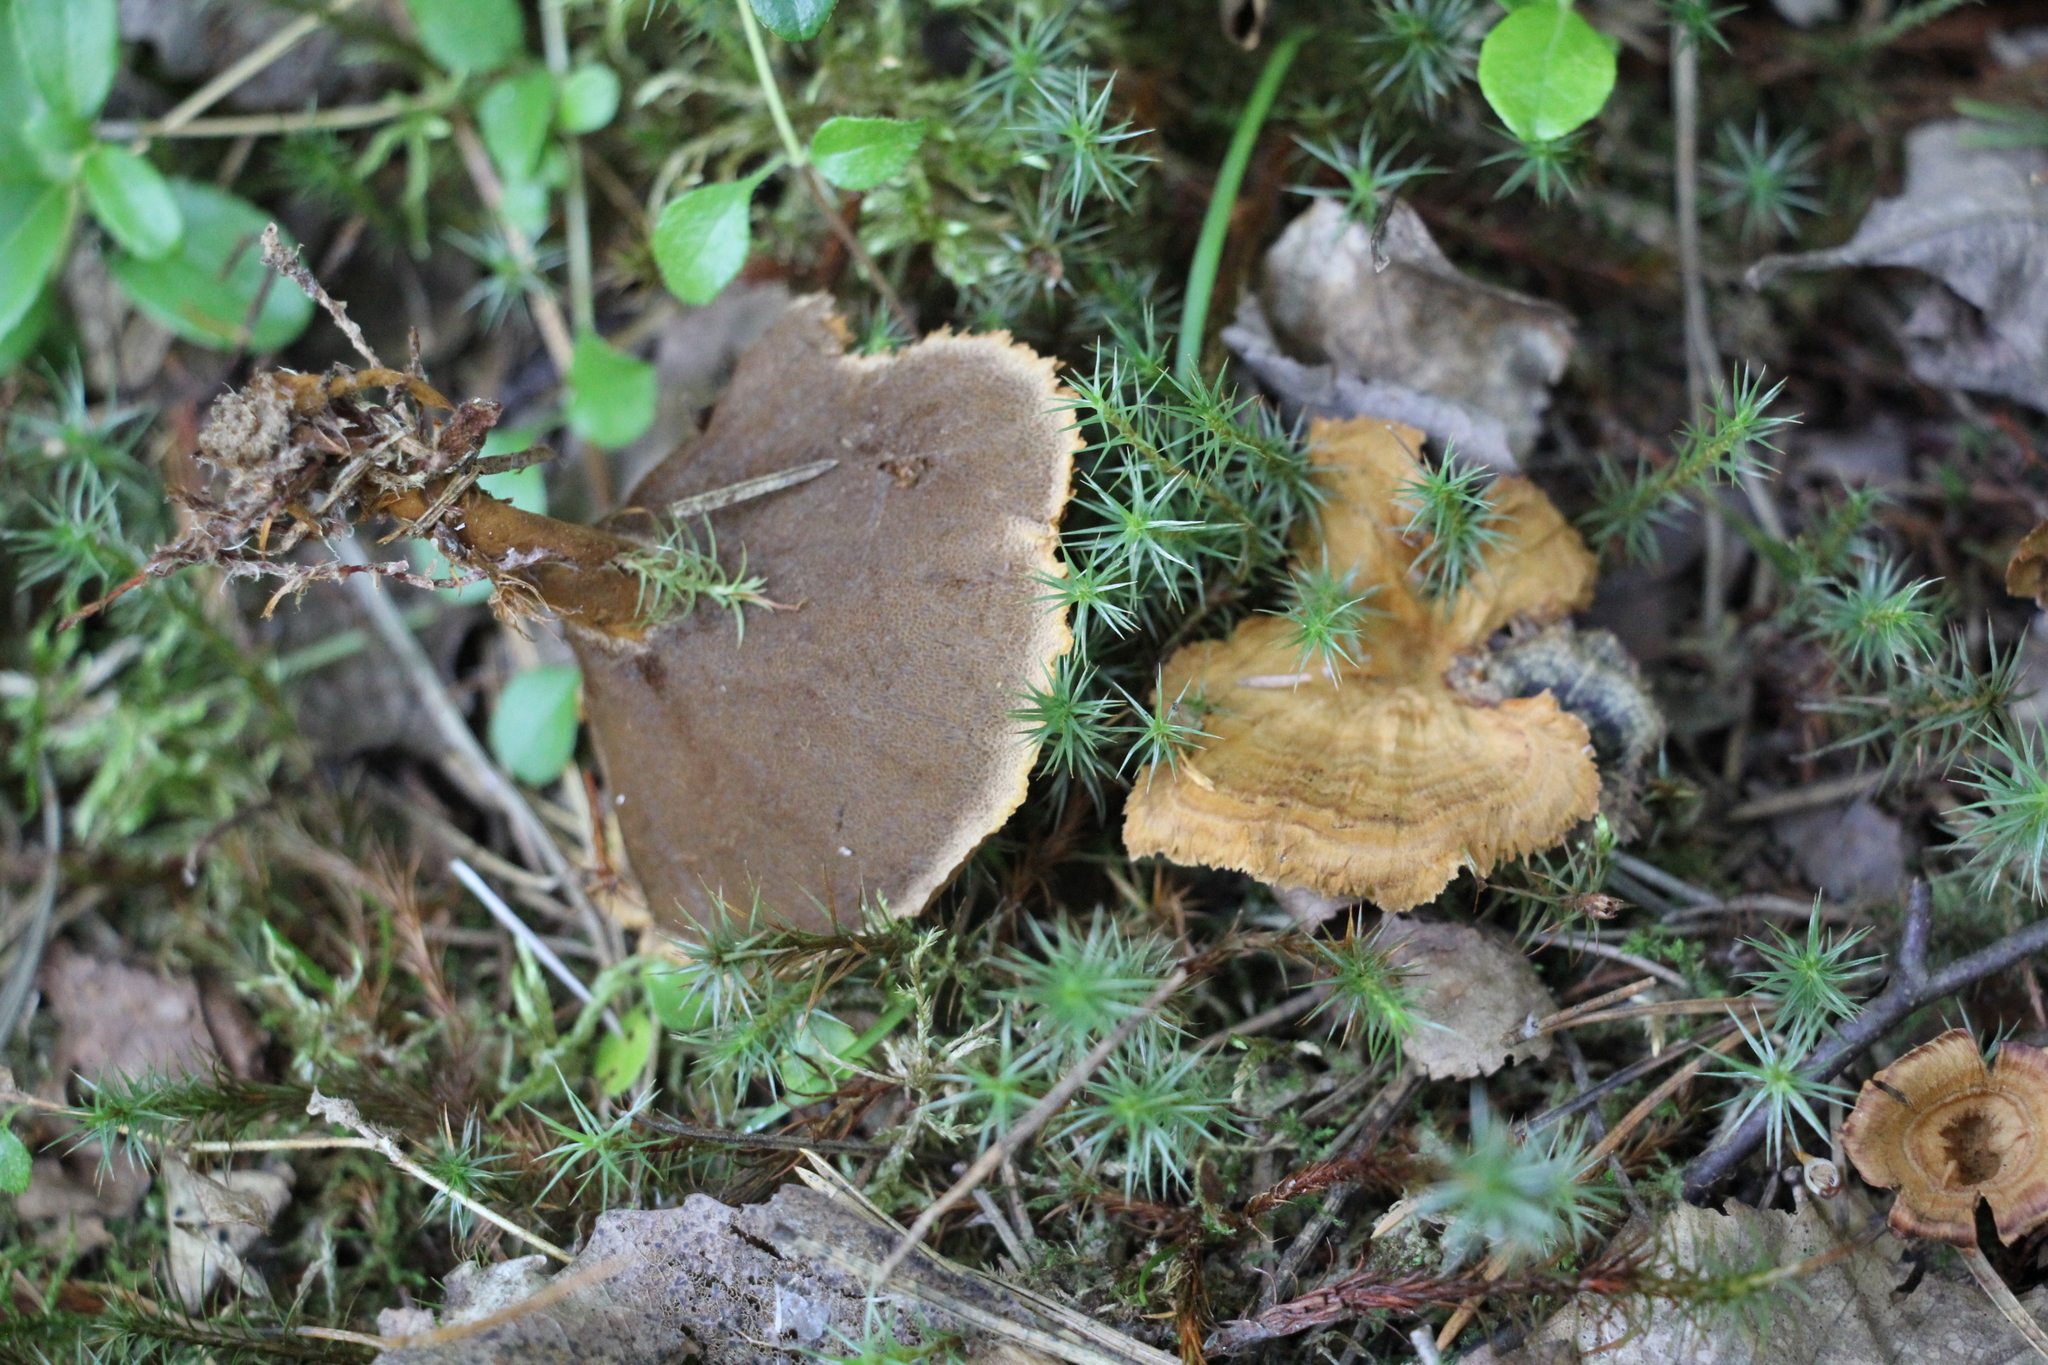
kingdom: Fungi
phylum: Basidiomycota
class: Agaricomycetes
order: Hymenochaetales
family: Hymenochaetaceae
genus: Coltricia
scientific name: Coltricia perennis
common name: Tiger's eye
